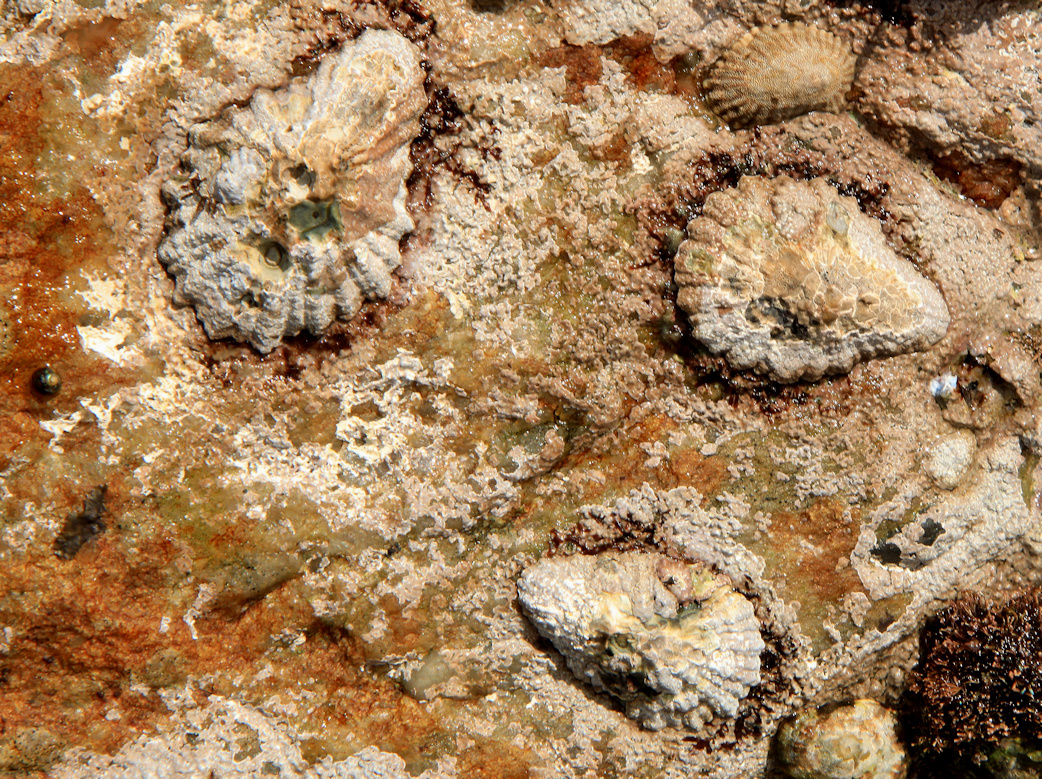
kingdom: Animalia
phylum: Mollusca
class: Gastropoda
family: Patellidae
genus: Scutellastra
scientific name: Scutellastra cochlear
